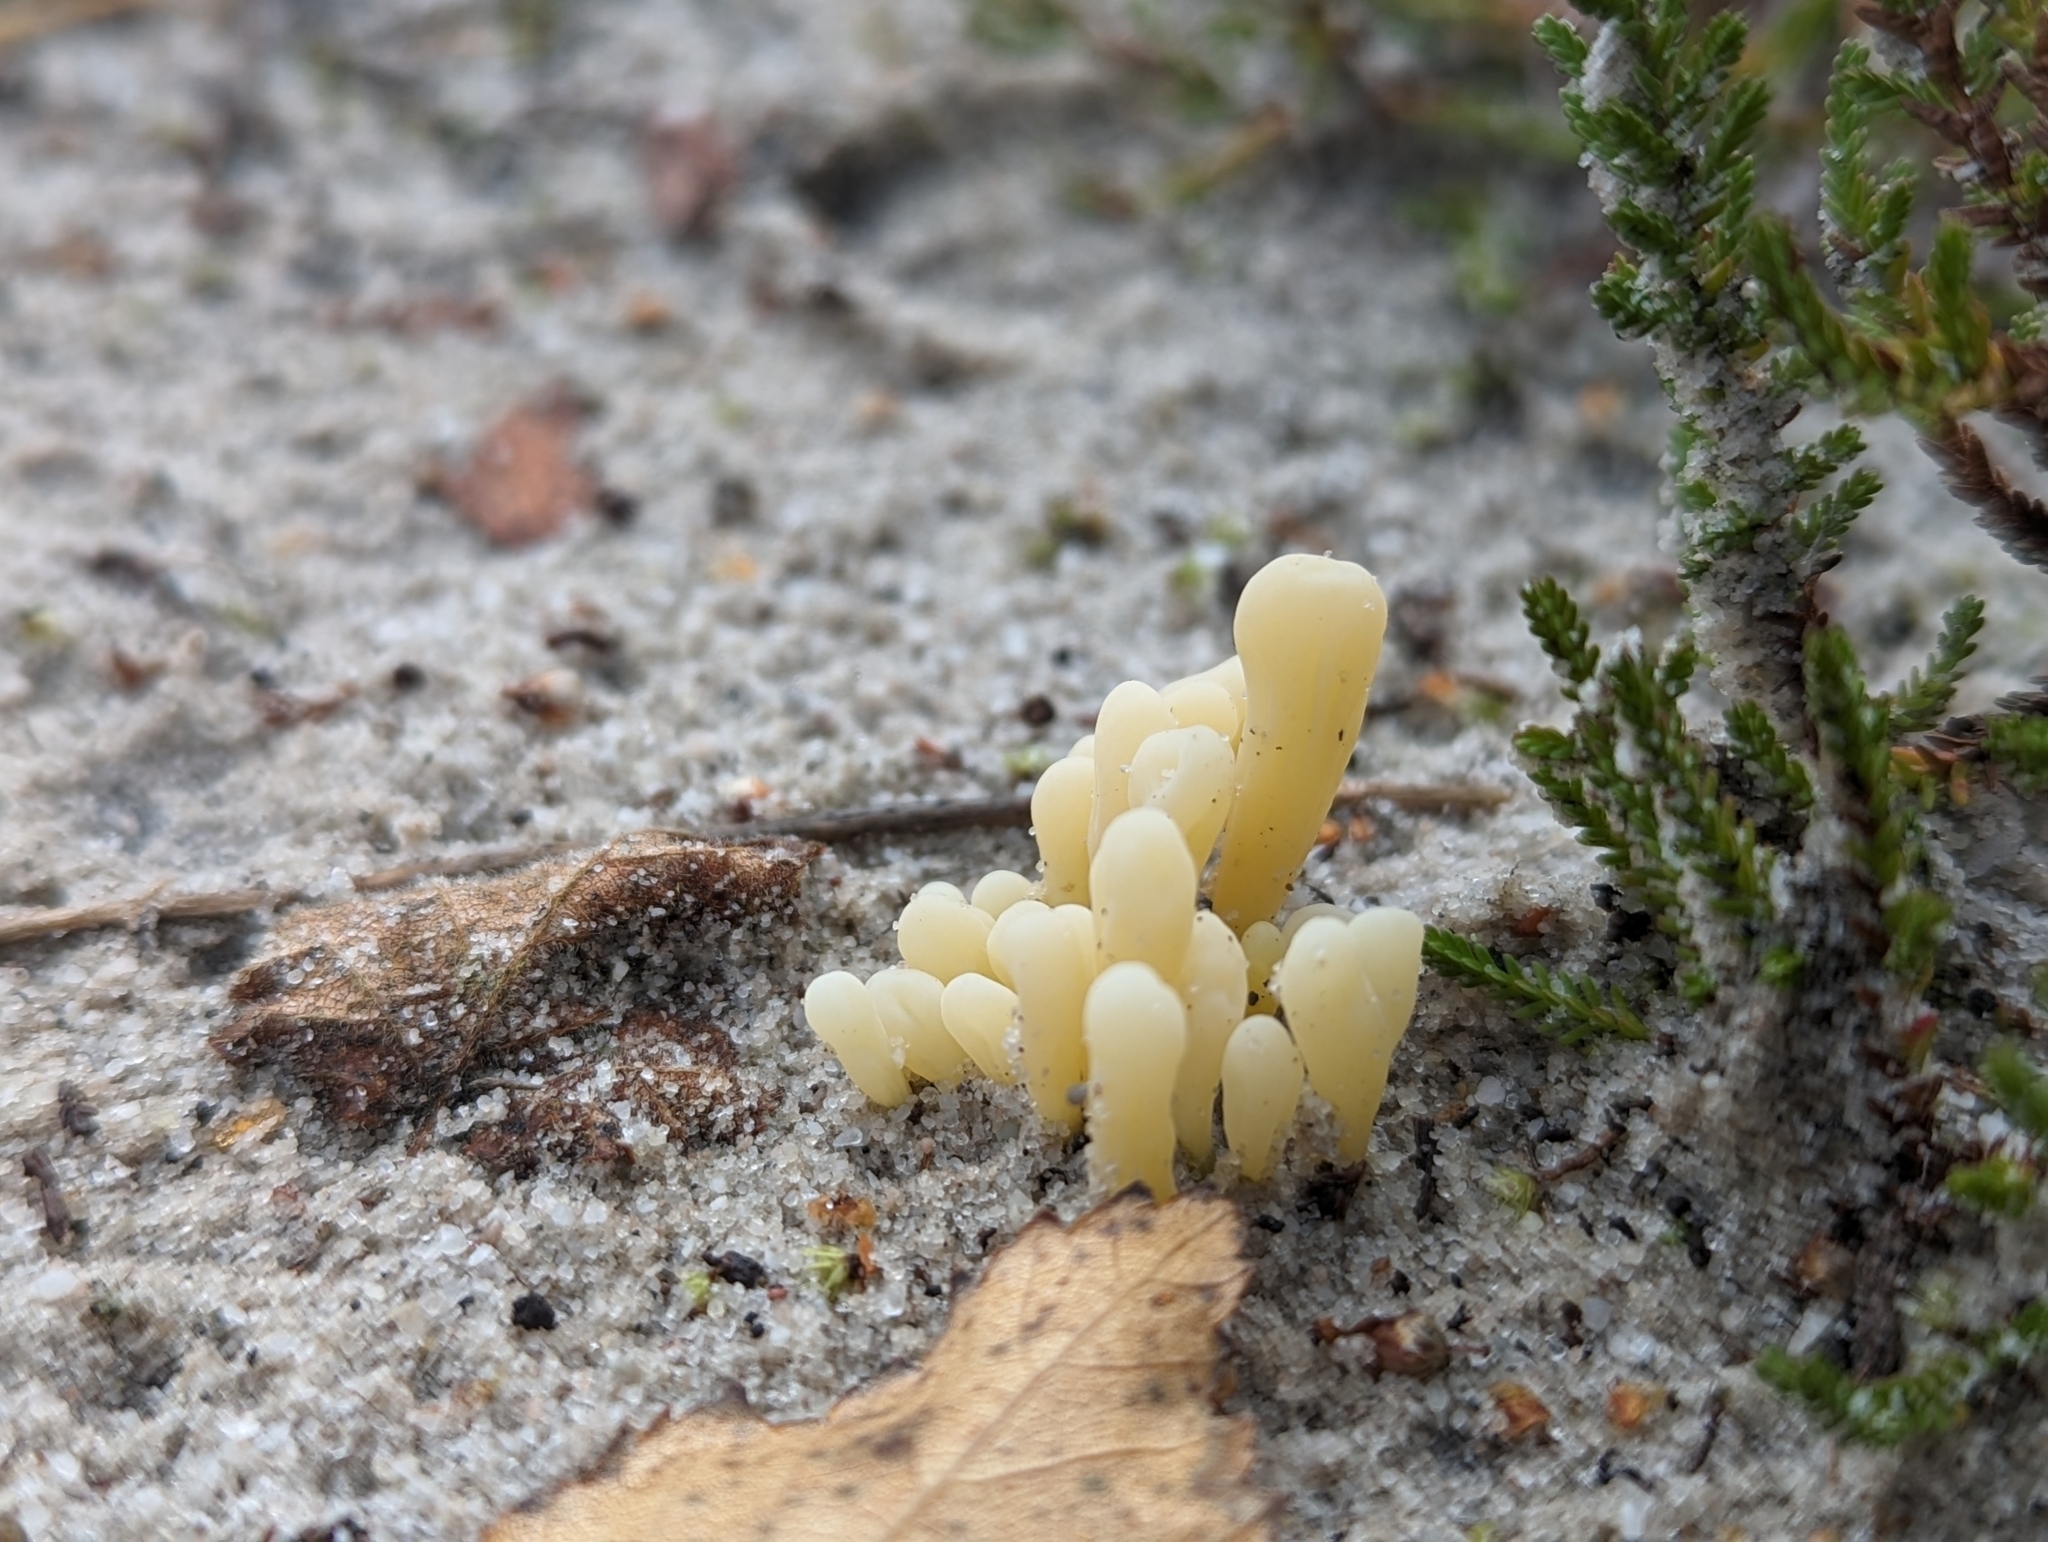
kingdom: Fungi
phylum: Basidiomycota
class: Agaricomycetes
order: Agaricales
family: Clavariaceae
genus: Clavaria
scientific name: Clavaria argillacea
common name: Moor club
